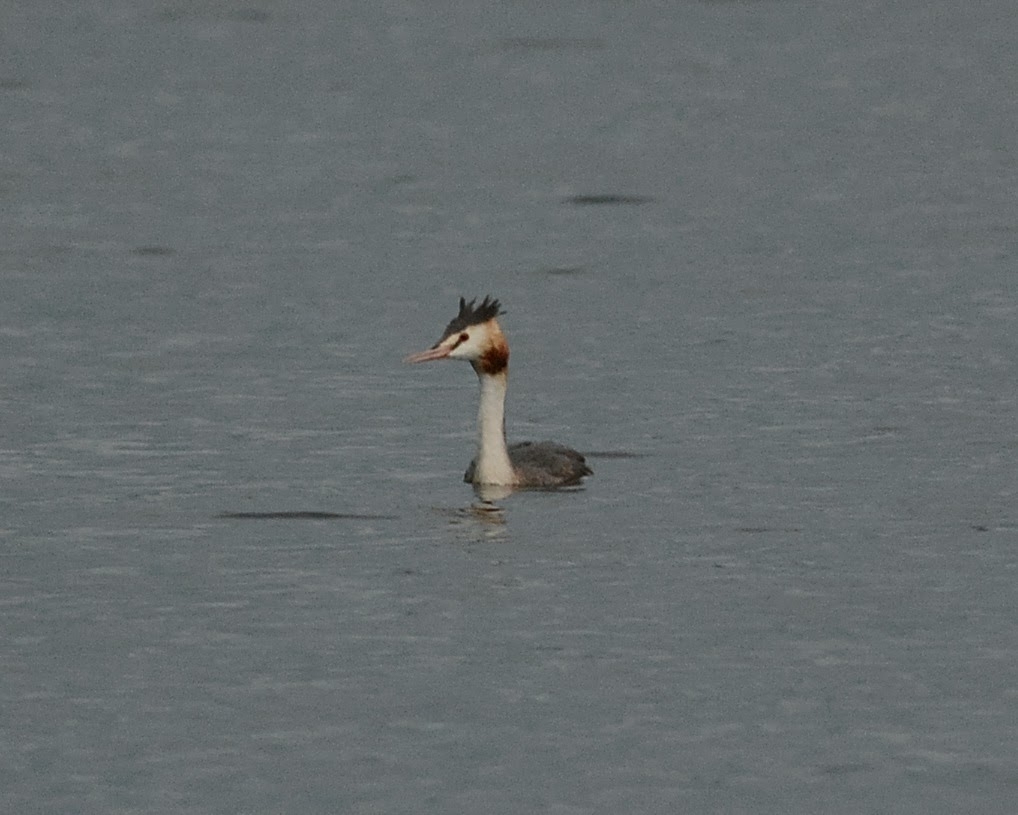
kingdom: Animalia
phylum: Chordata
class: Aves
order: Podicipediformes
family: Podicipedidae
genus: Podiceps
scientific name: Podiceps cristatus
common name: Great crested grebe
